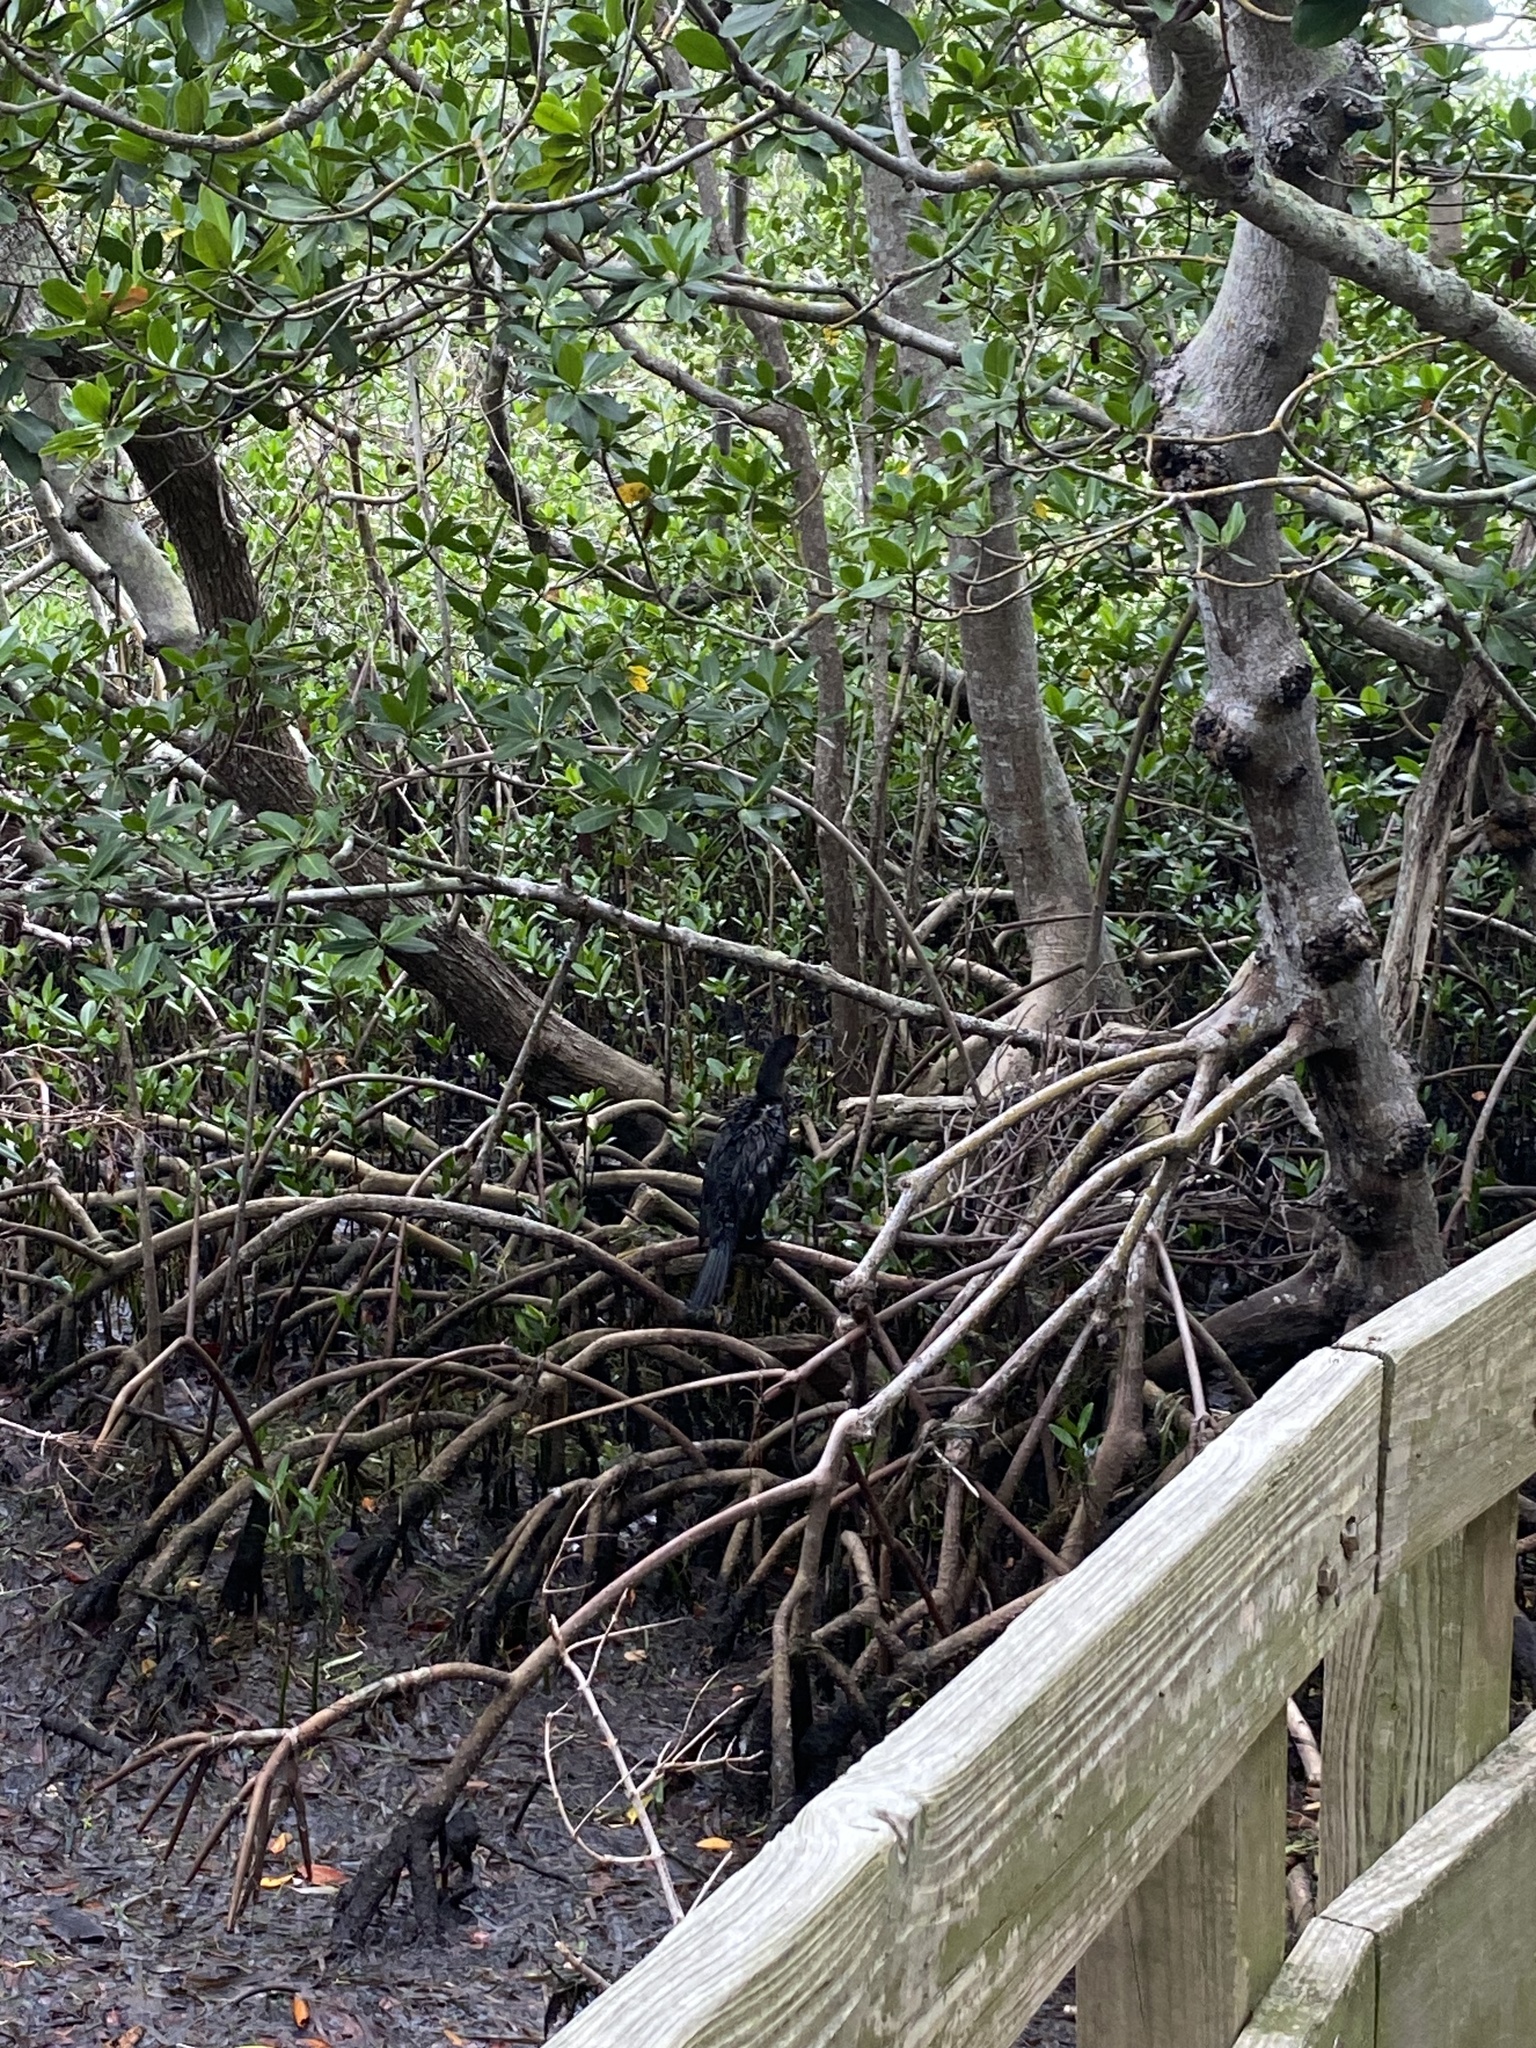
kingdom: Animalia
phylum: Chordata
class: Aves
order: Suliformes
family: Phalacrocoracidae
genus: Phalacrocorax
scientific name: Phalacrocorax auritus
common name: Double-crested cormorant
